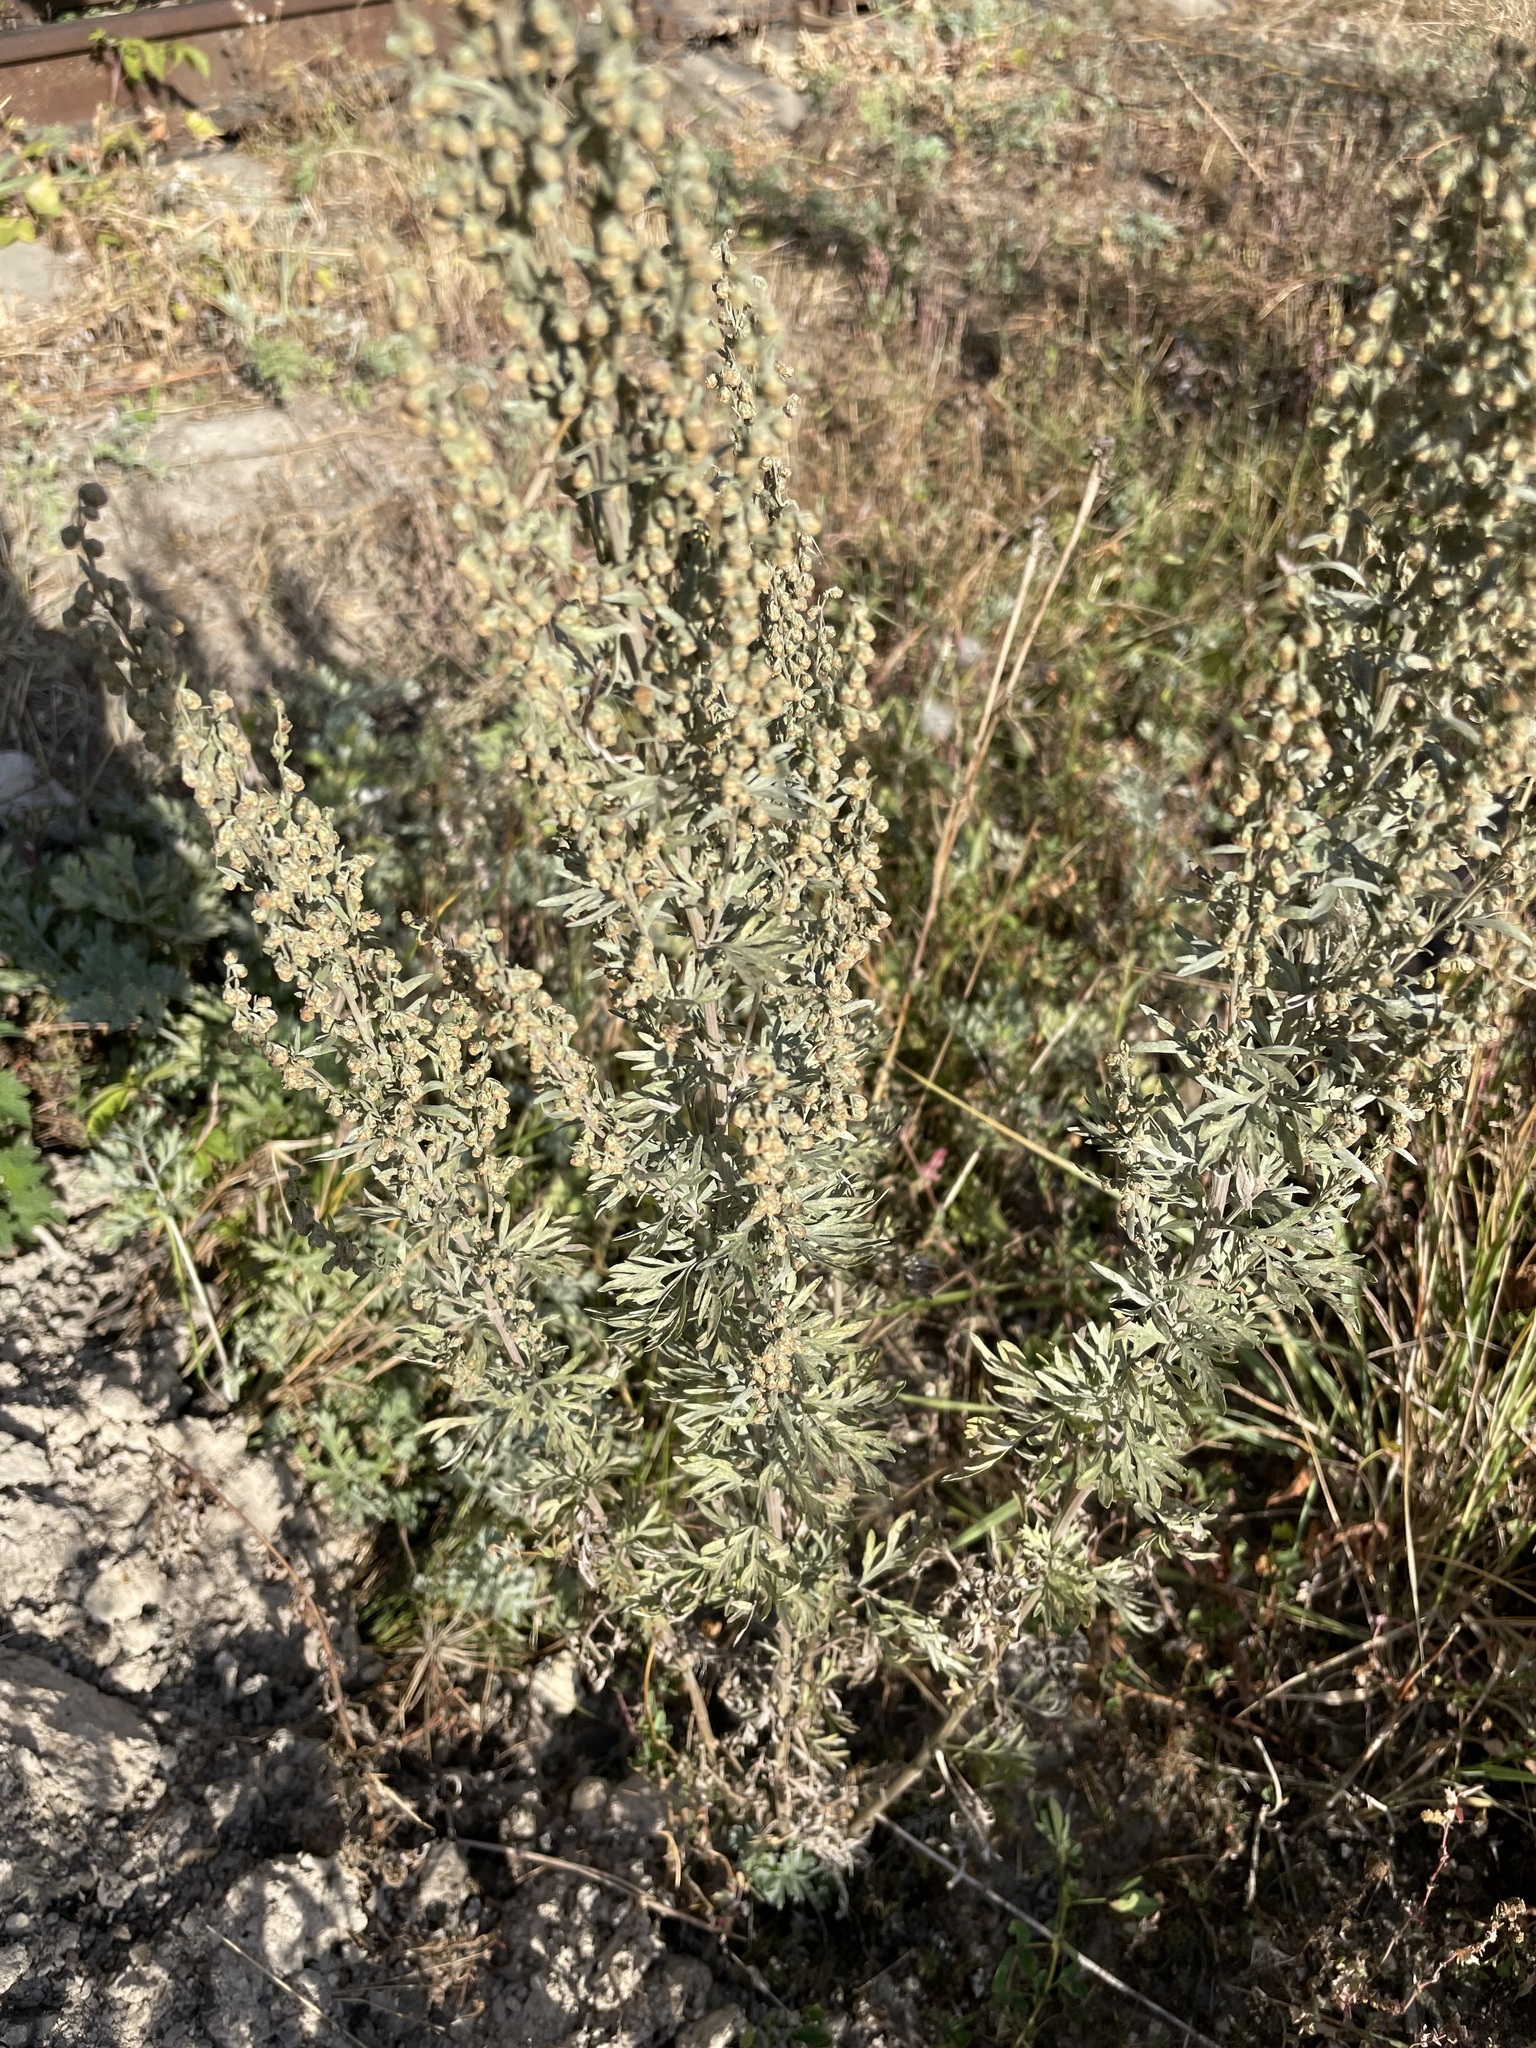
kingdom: Plantae
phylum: Tracheophyta
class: Magnoliopsida
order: Asterales
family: Asteraceae
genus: Artemisia
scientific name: Artemisia absinthium
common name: Wormwood
